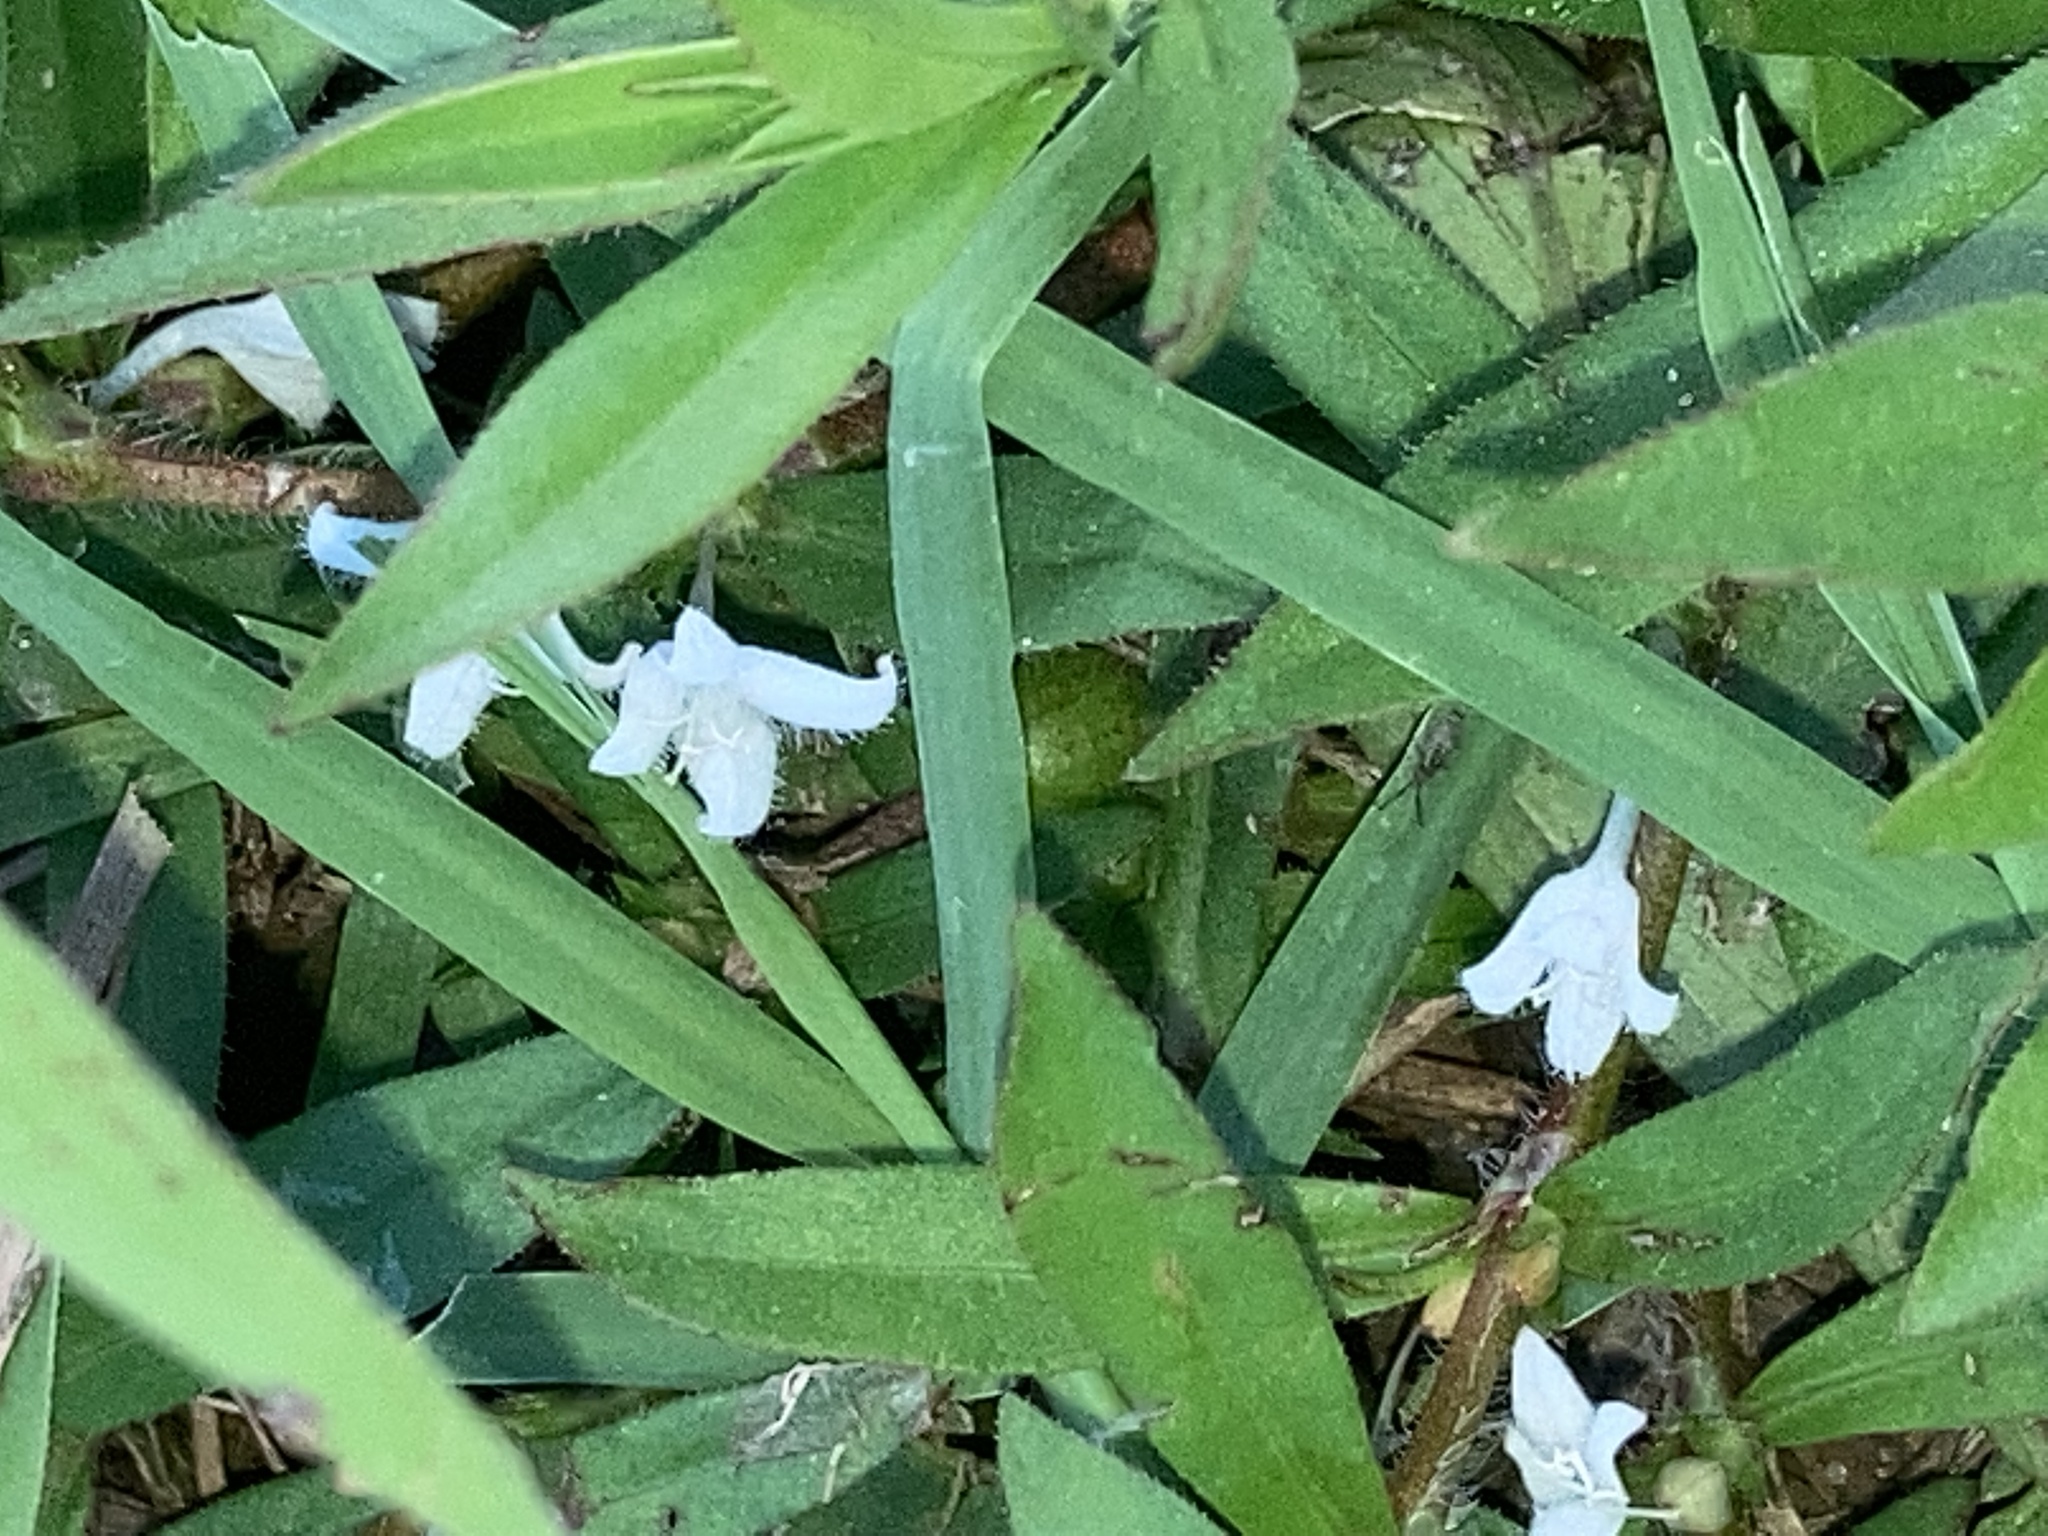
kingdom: Plantae
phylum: Tracheophyta
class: Magnoliopsida
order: Gentianales
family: Rubiaceae
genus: Diodia
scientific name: Diodia virginiana
